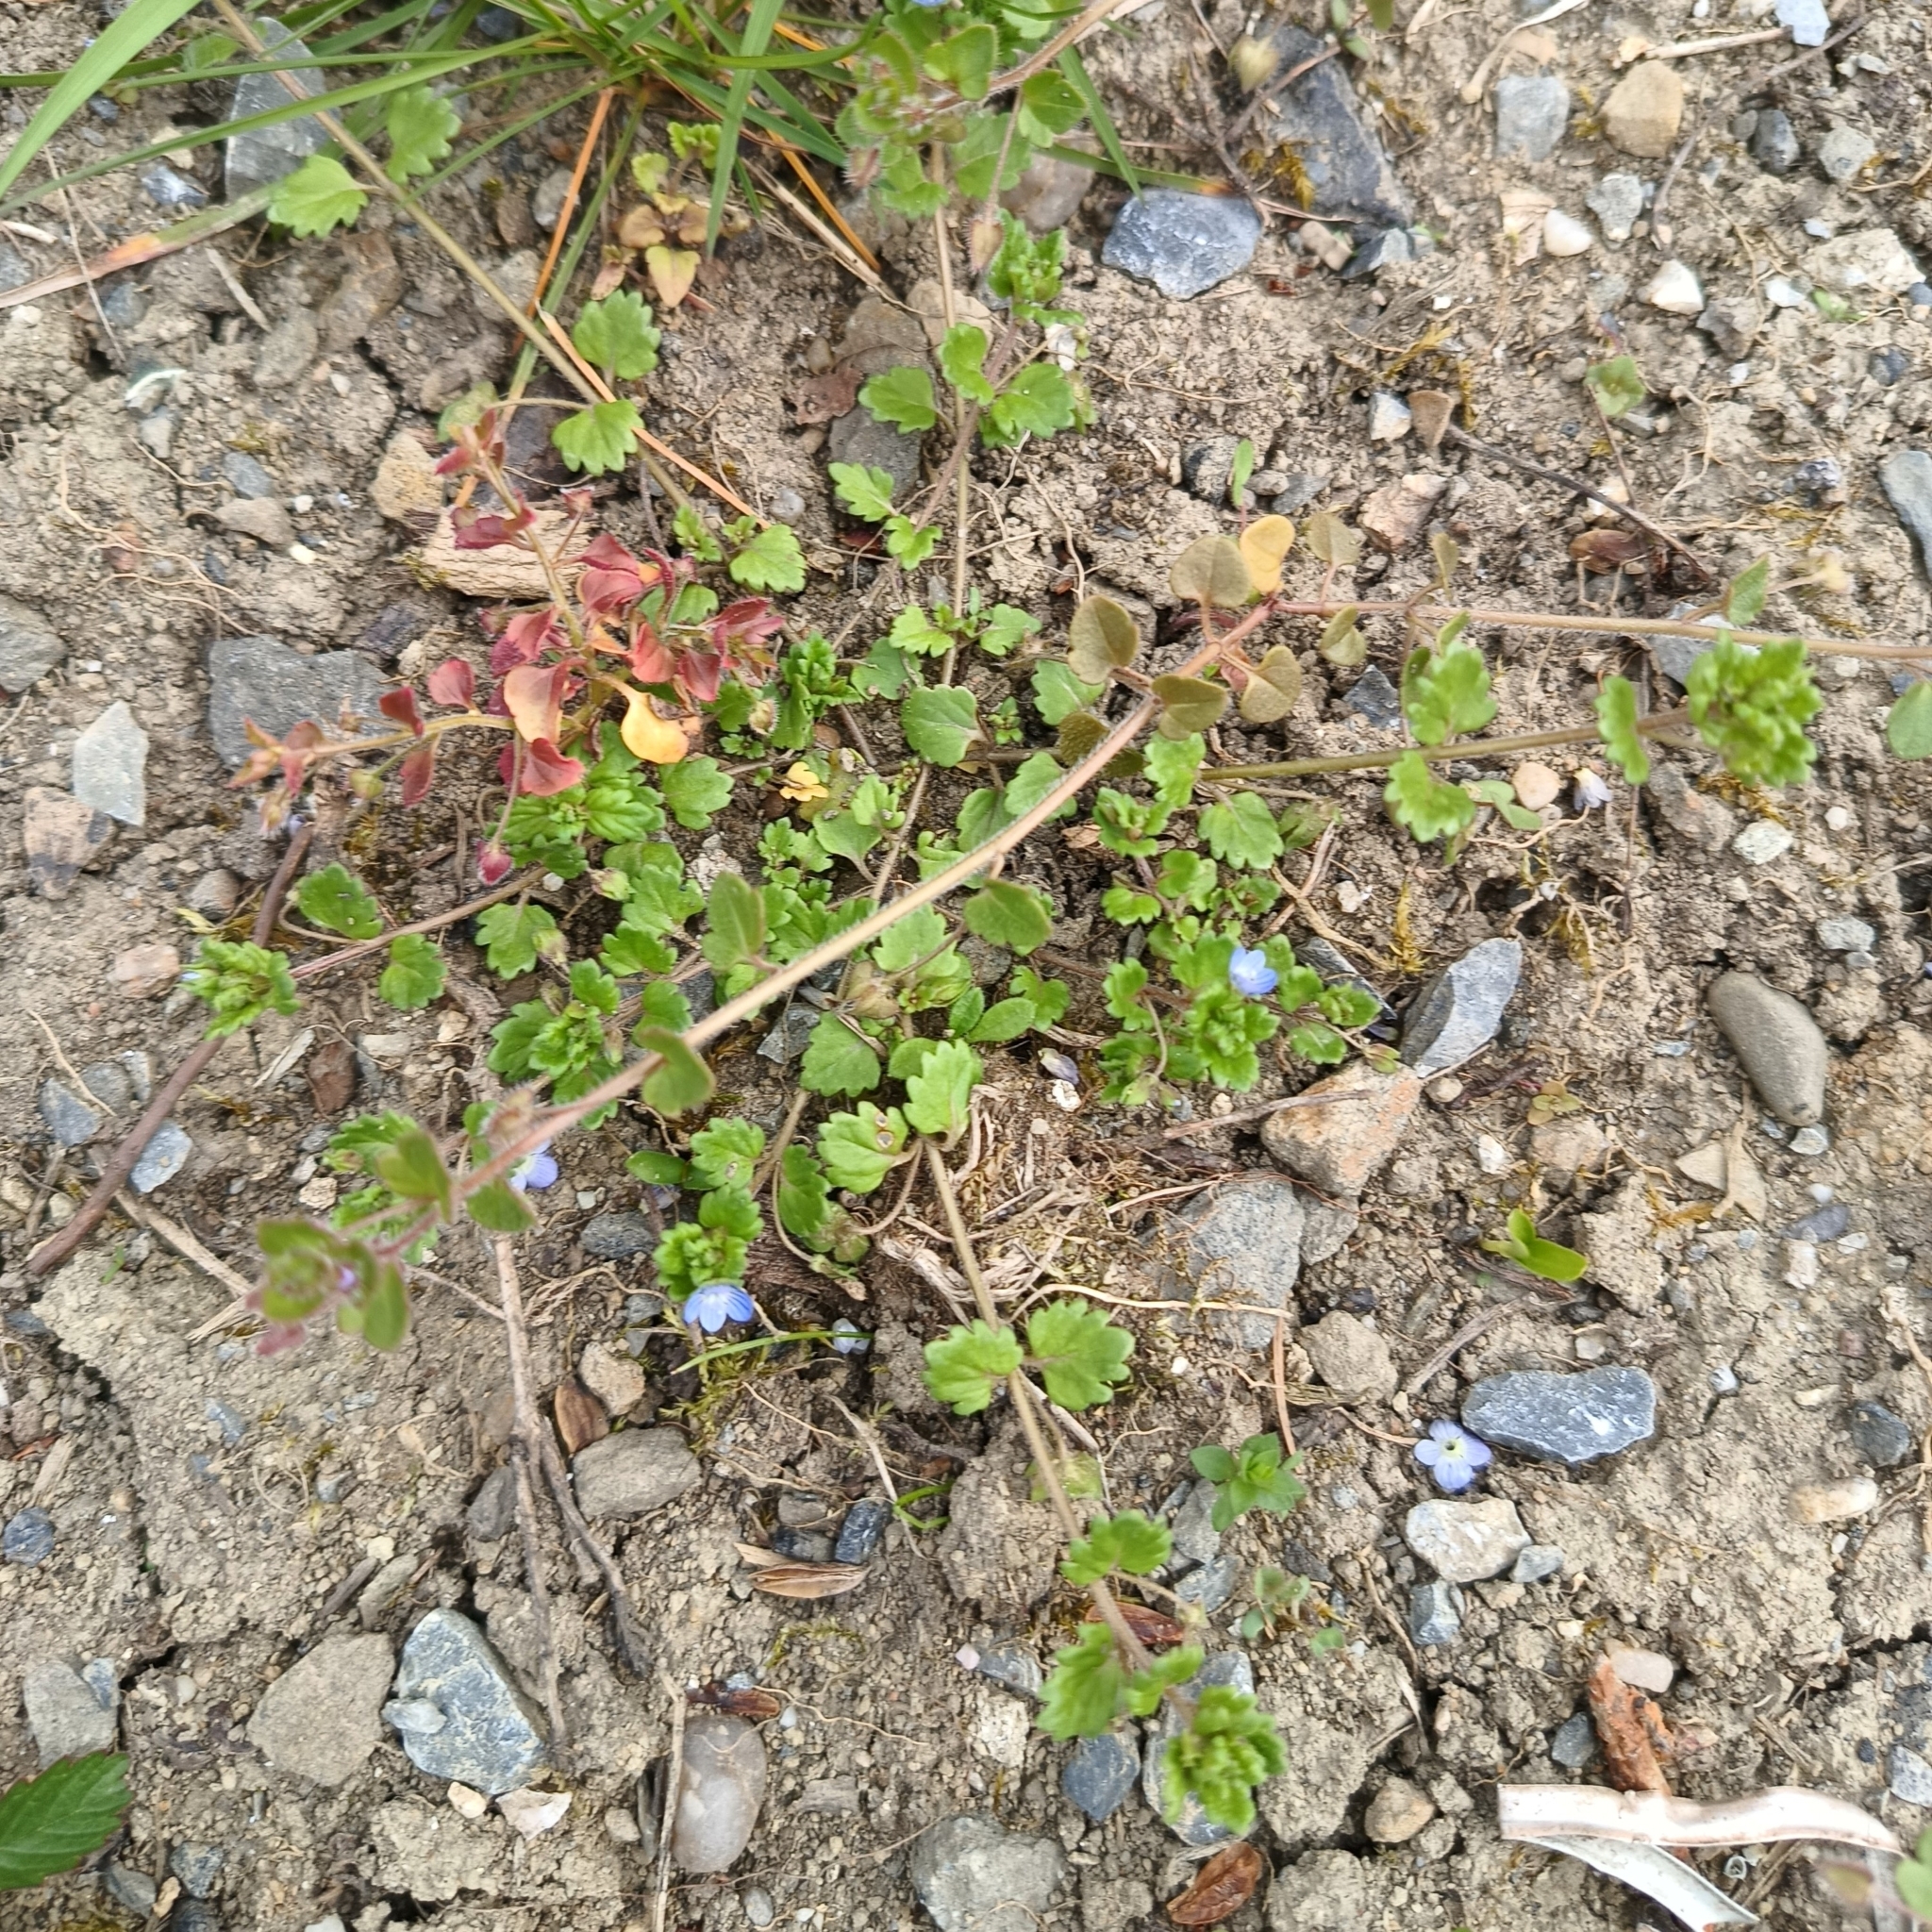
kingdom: Plantae
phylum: Tracheophyta
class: Magnoliopsida
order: Lamiales
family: Plantaginaceae
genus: Veronica
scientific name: Veronica polita
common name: Grey field-speedwell
